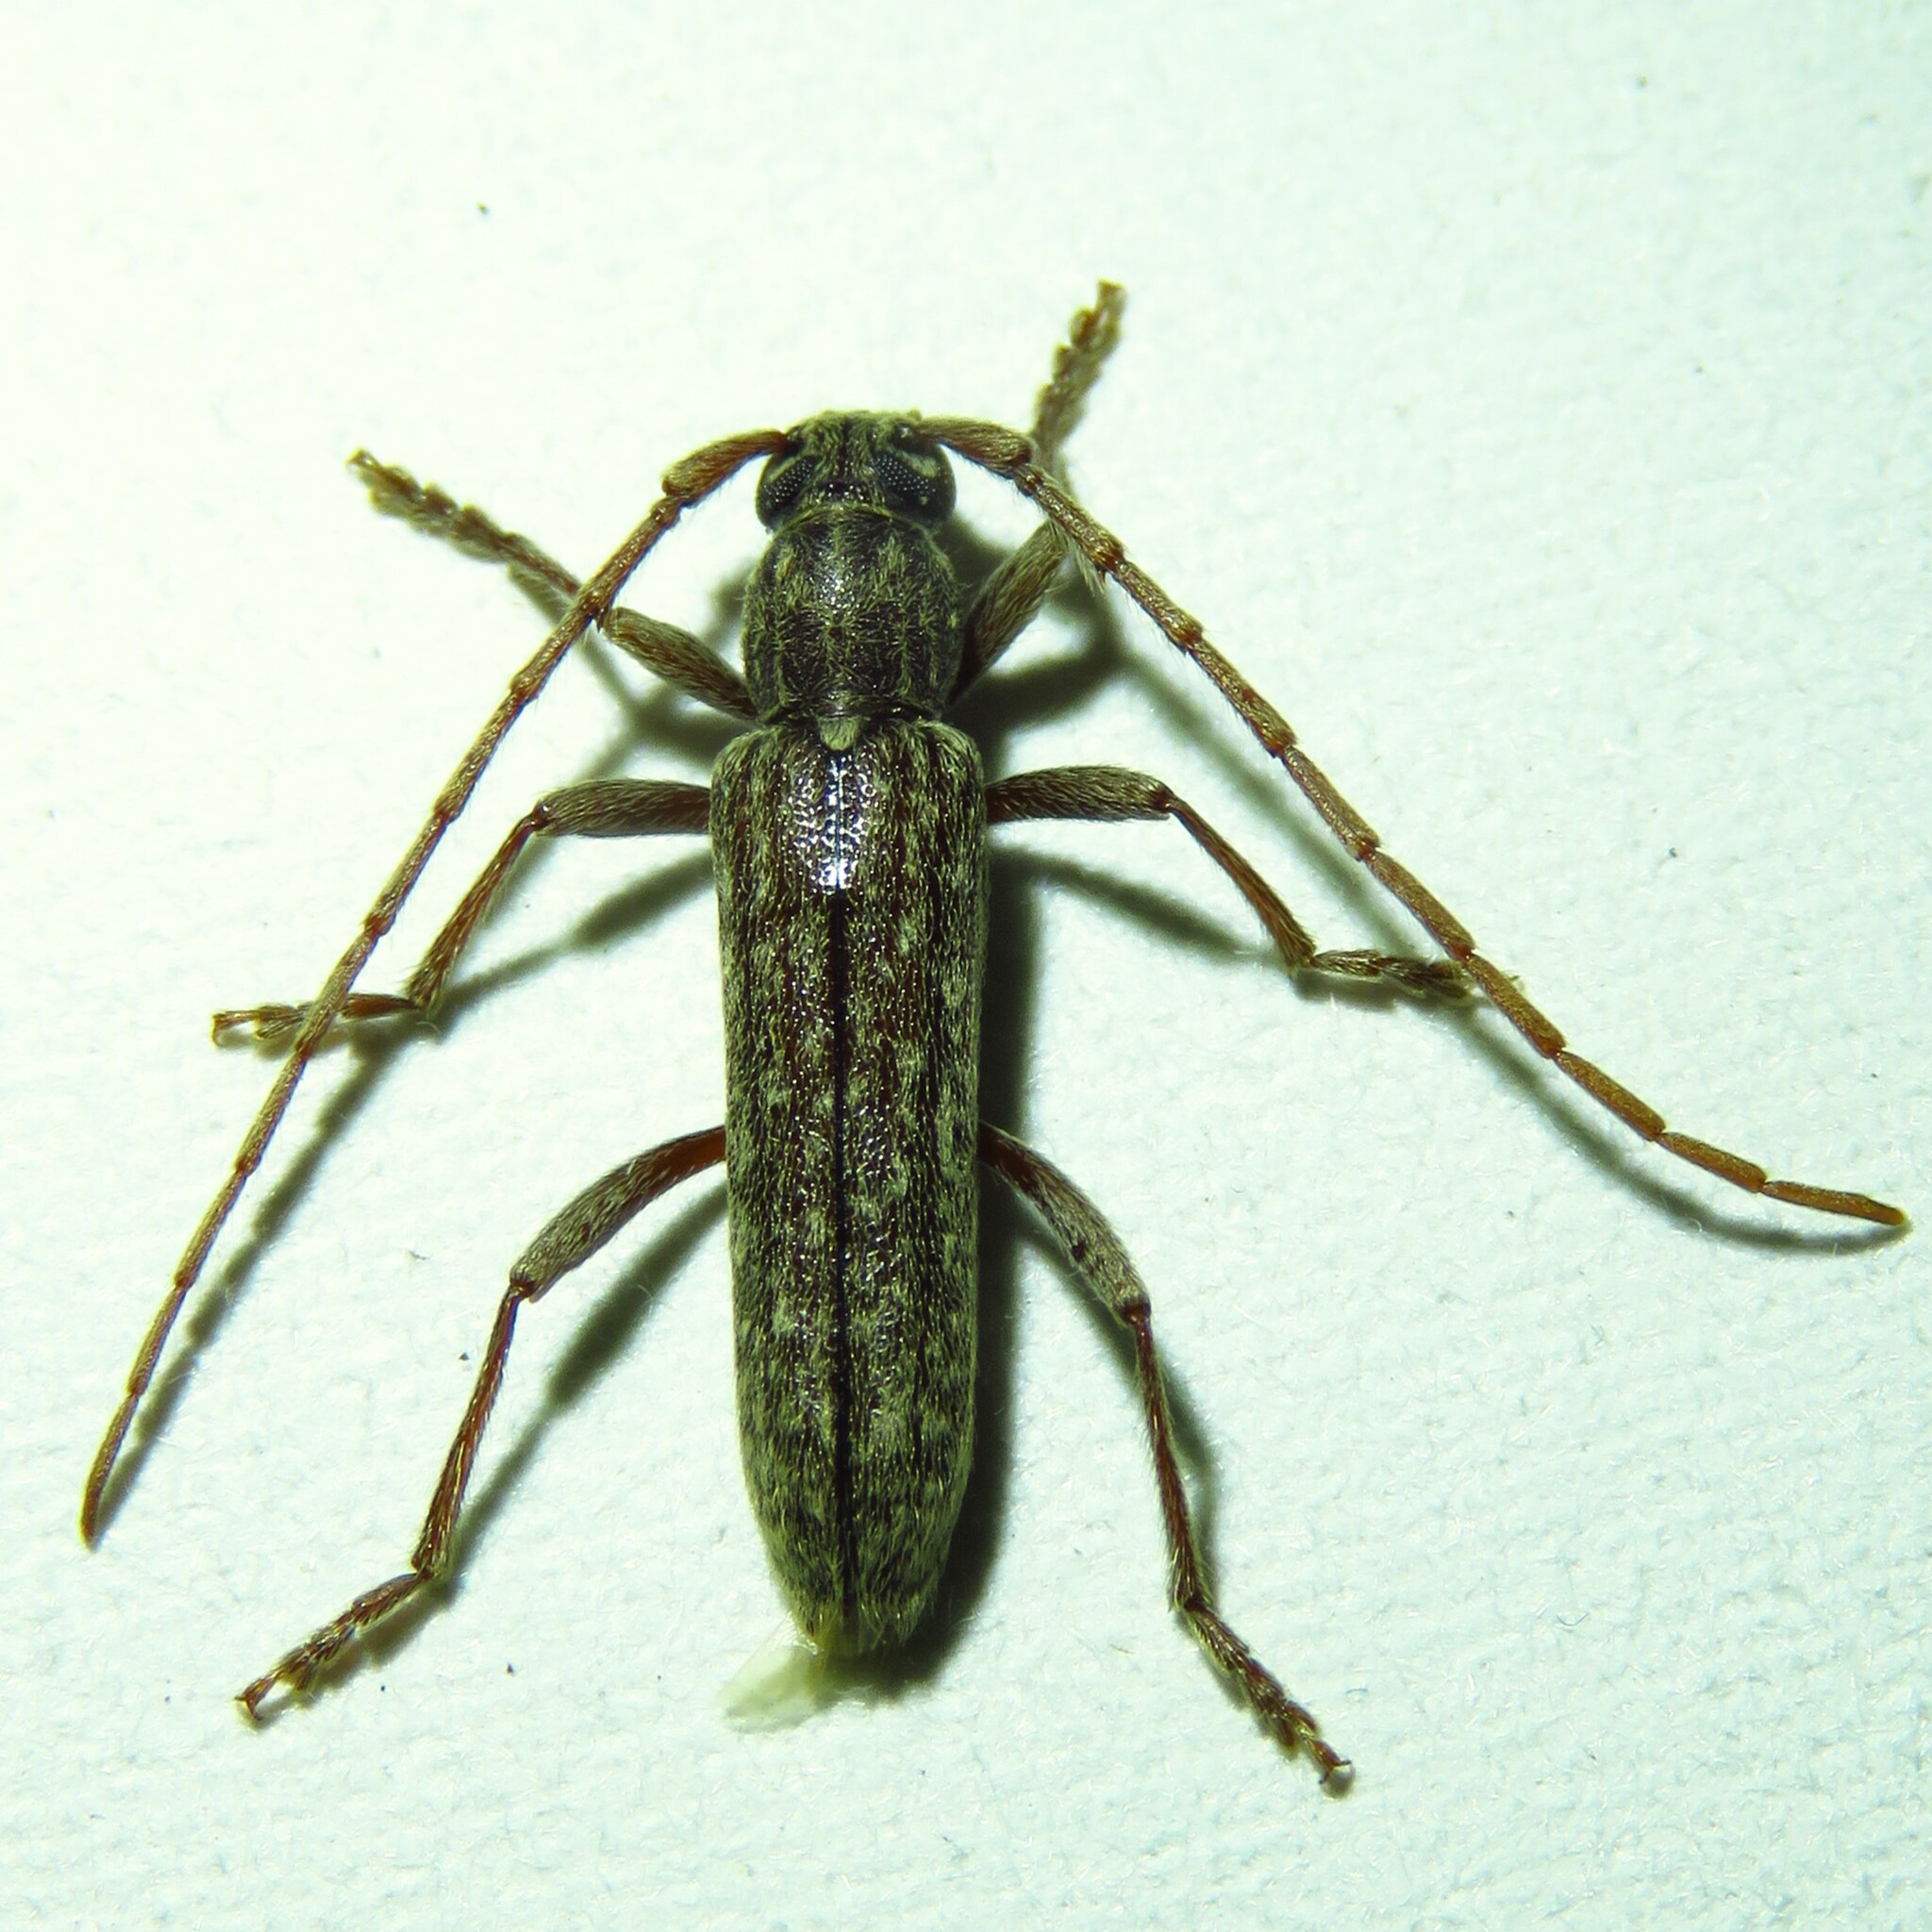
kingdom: Animalia
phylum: Arthropoda
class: Insecta
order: Coleoptera
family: Cerambycidae
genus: Anelaphus
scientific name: Anelaphus villosus
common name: Twig pruner
